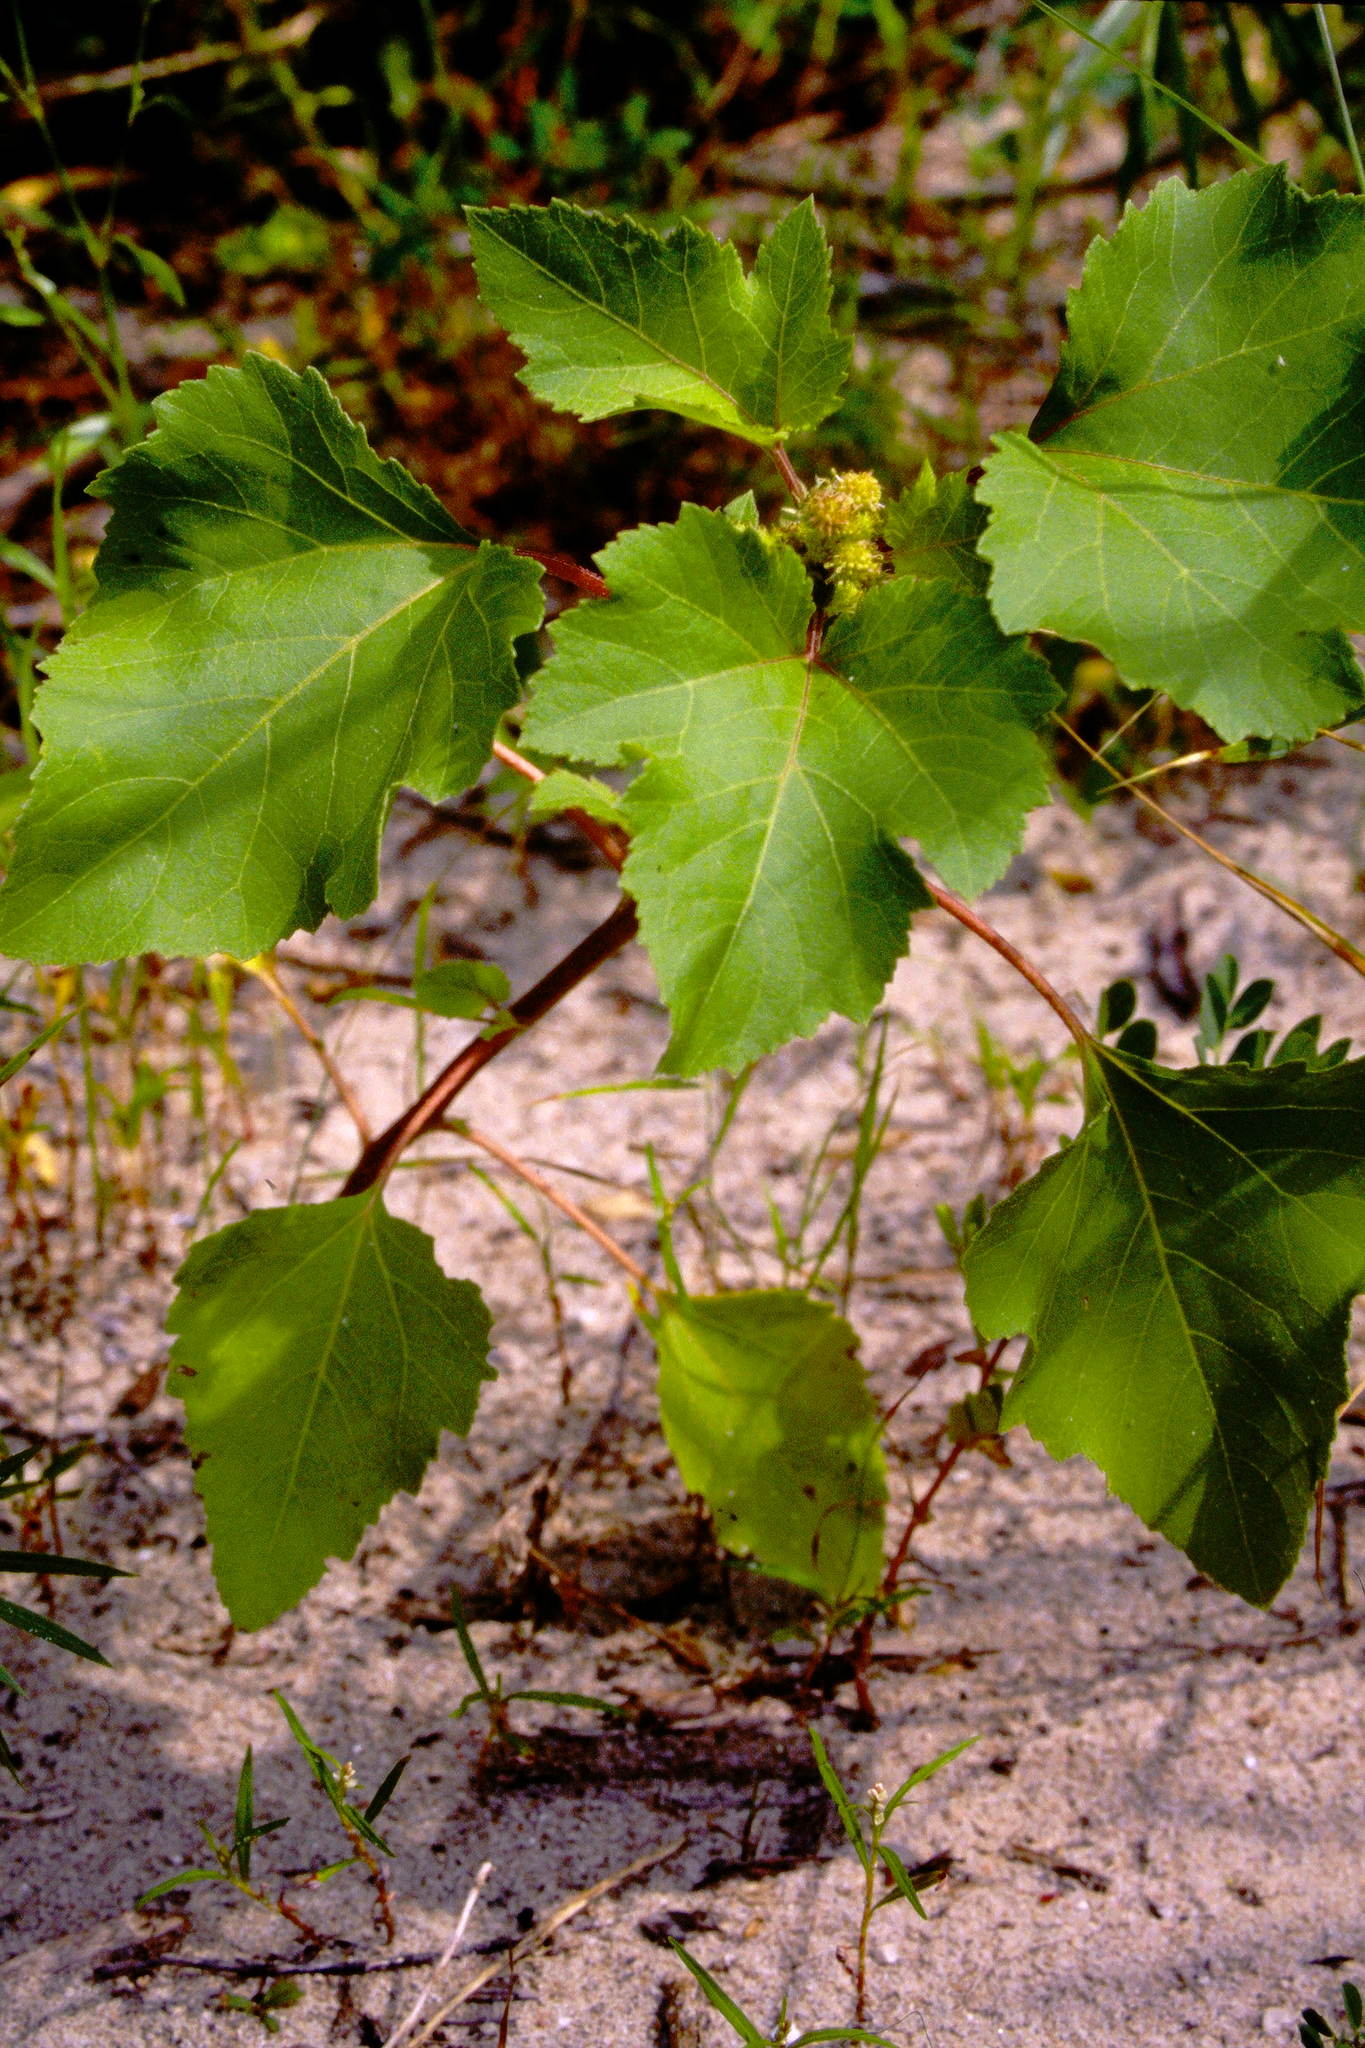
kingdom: Plantae
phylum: Tracheophyta
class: Magnoliopsida
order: Asterales
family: Asteraceae
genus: Xanthium
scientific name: Xanthium strumarium
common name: Rough cocklebur
